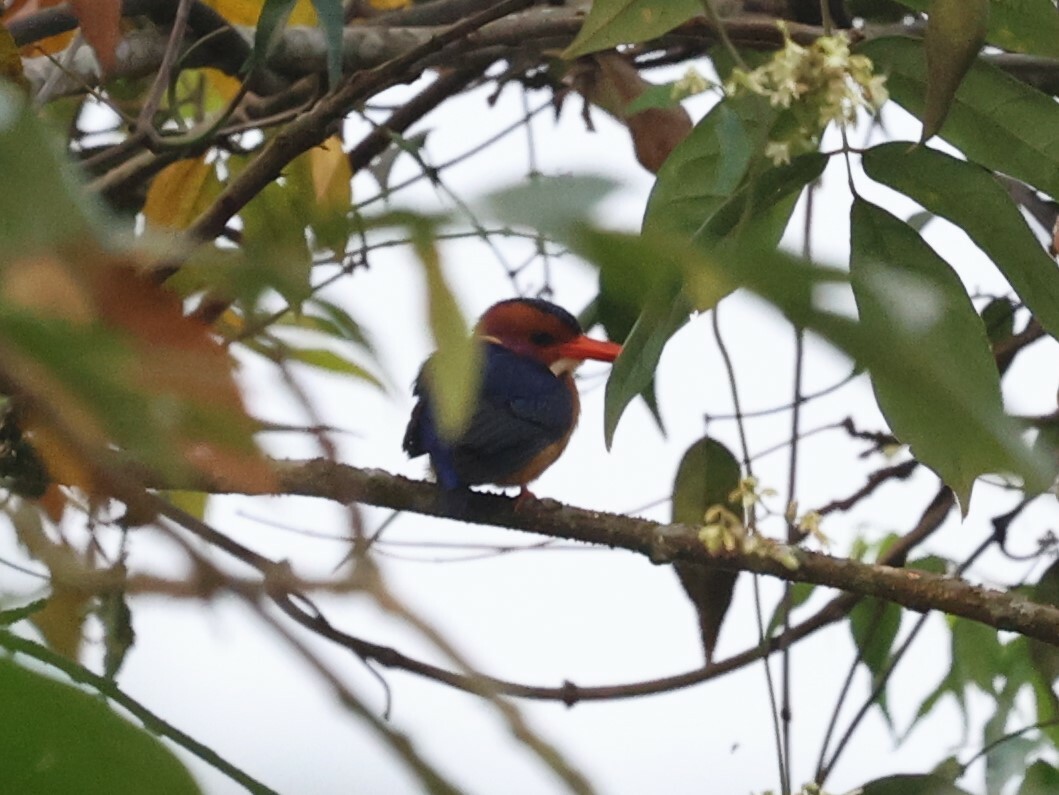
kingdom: Animalia
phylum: Chordata
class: Aves
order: Coraciiformes
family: Alcedinidae
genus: Ispidina
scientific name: Ispidina picta
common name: African pygmy-kingfisher
